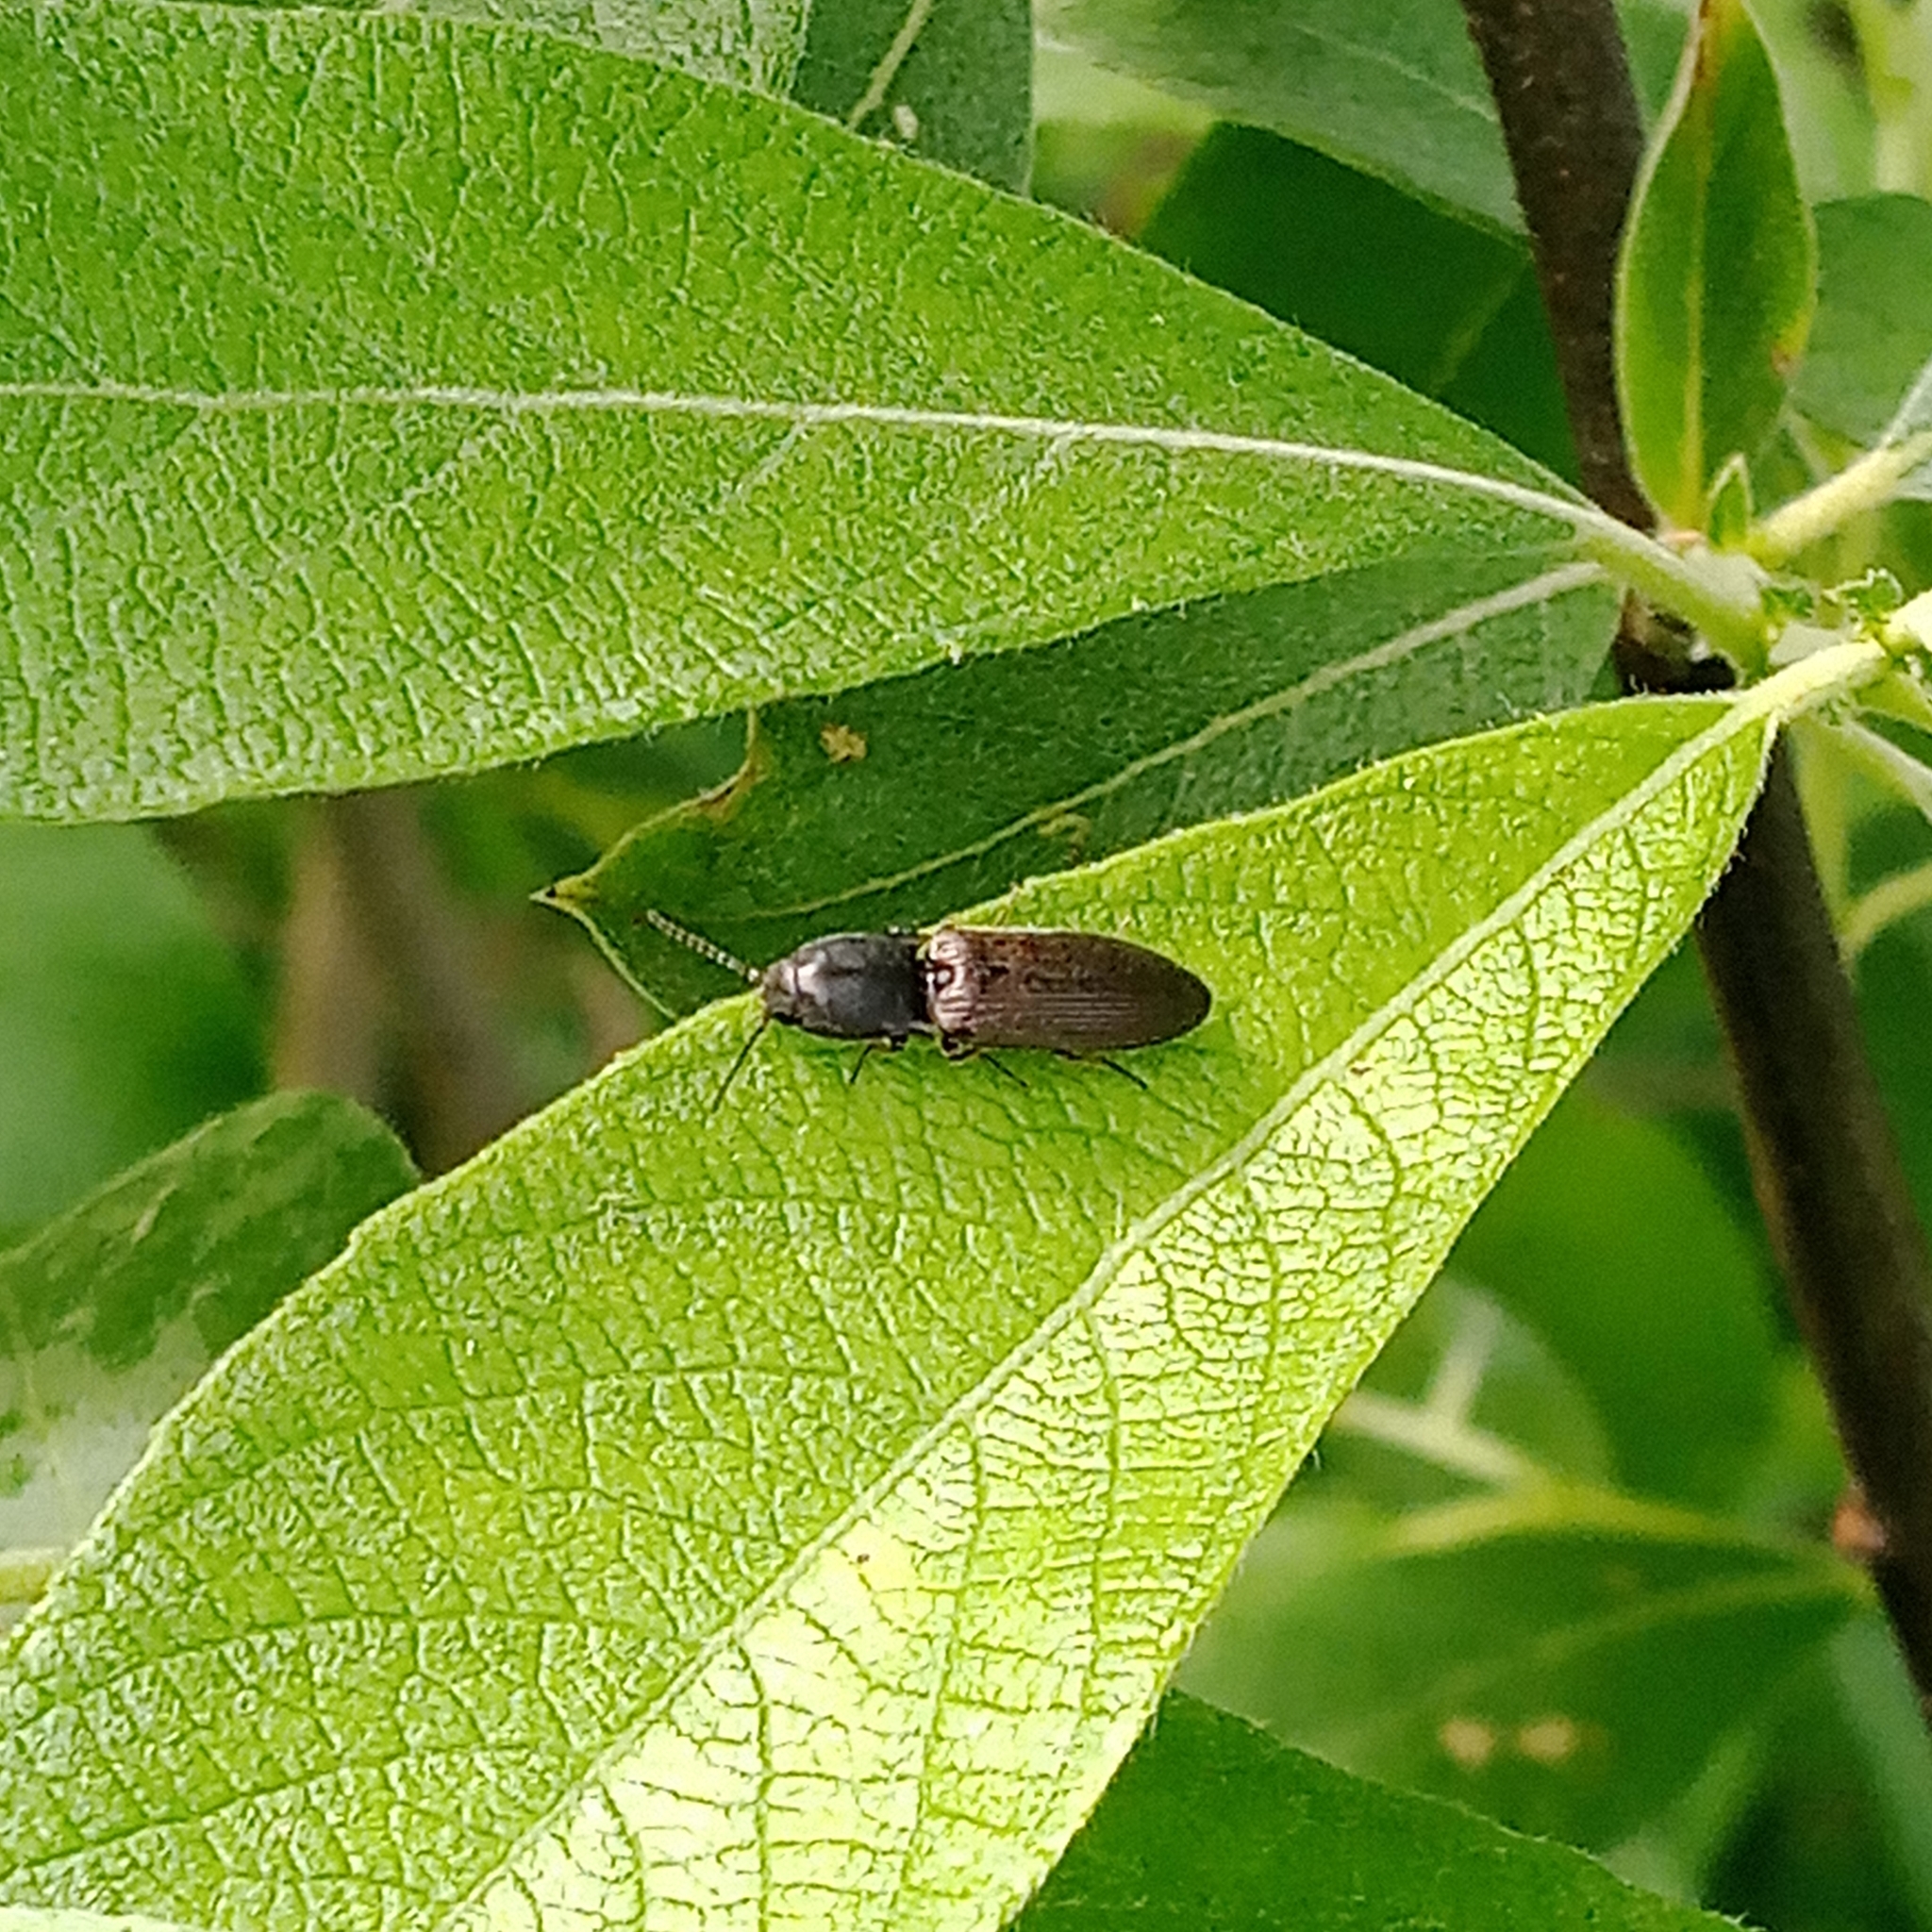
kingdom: Animalia
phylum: Arthropoda
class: Insecta
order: Coleoptera
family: Elateridae
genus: Aplotarsus
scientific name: Aplotarsus incanus
